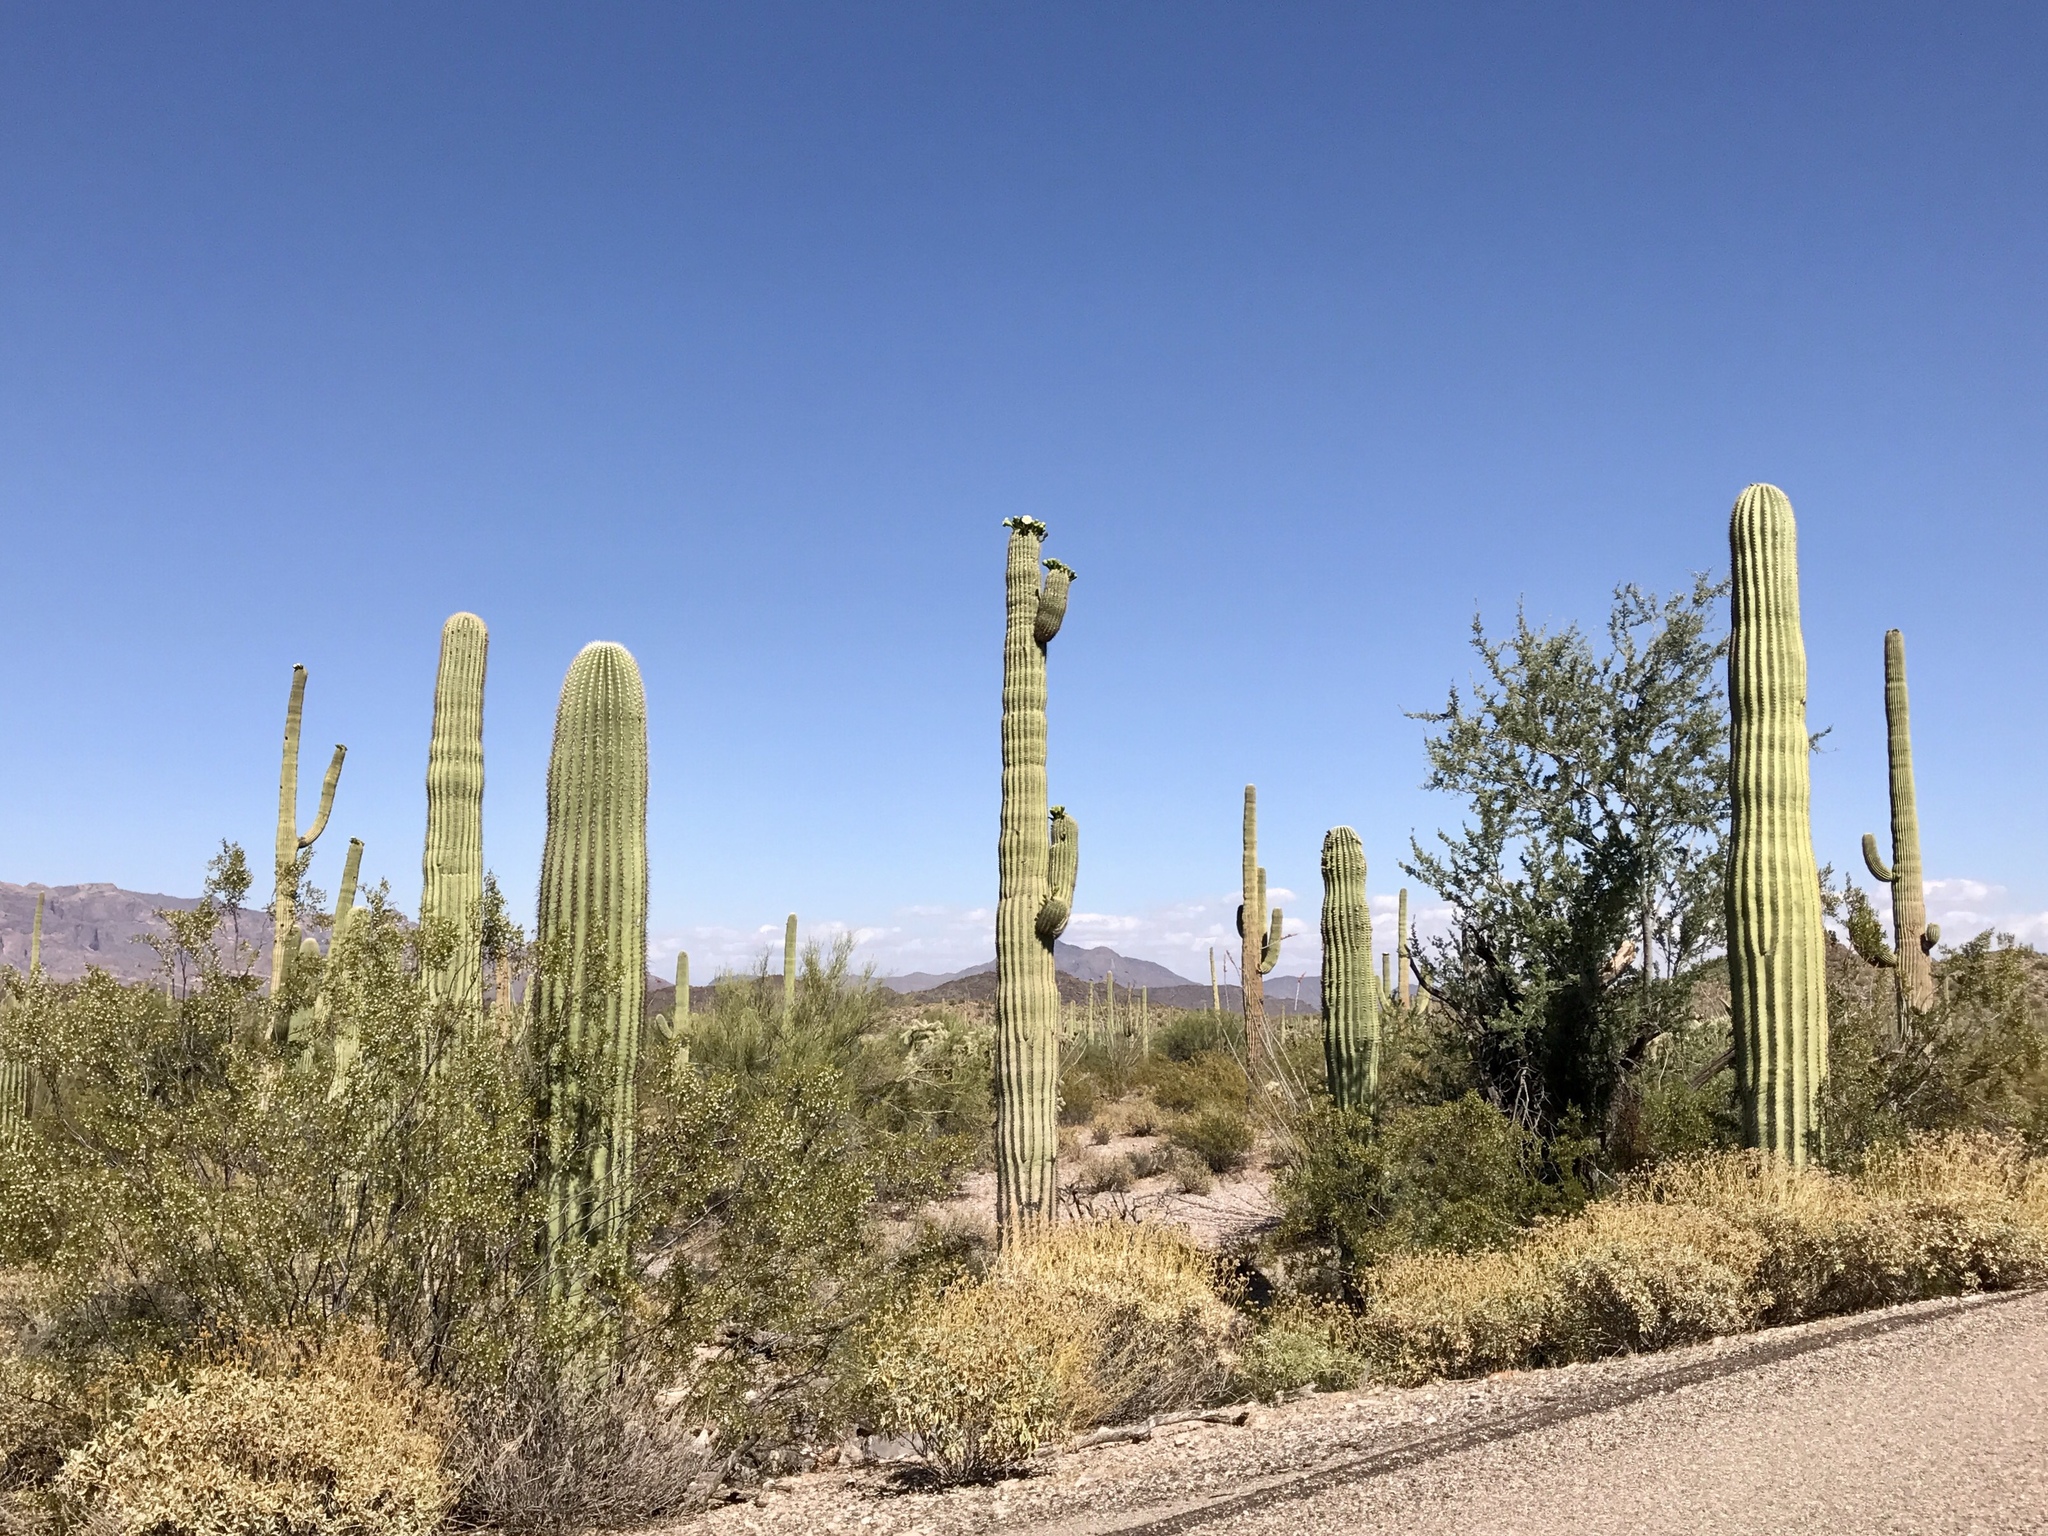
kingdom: Plantae
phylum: Tracheophyta
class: Magnoliopsida
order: Caryophyllales
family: Cactaceae
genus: Carnegiea
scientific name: Carnegiea gigantea
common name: Saguaro
